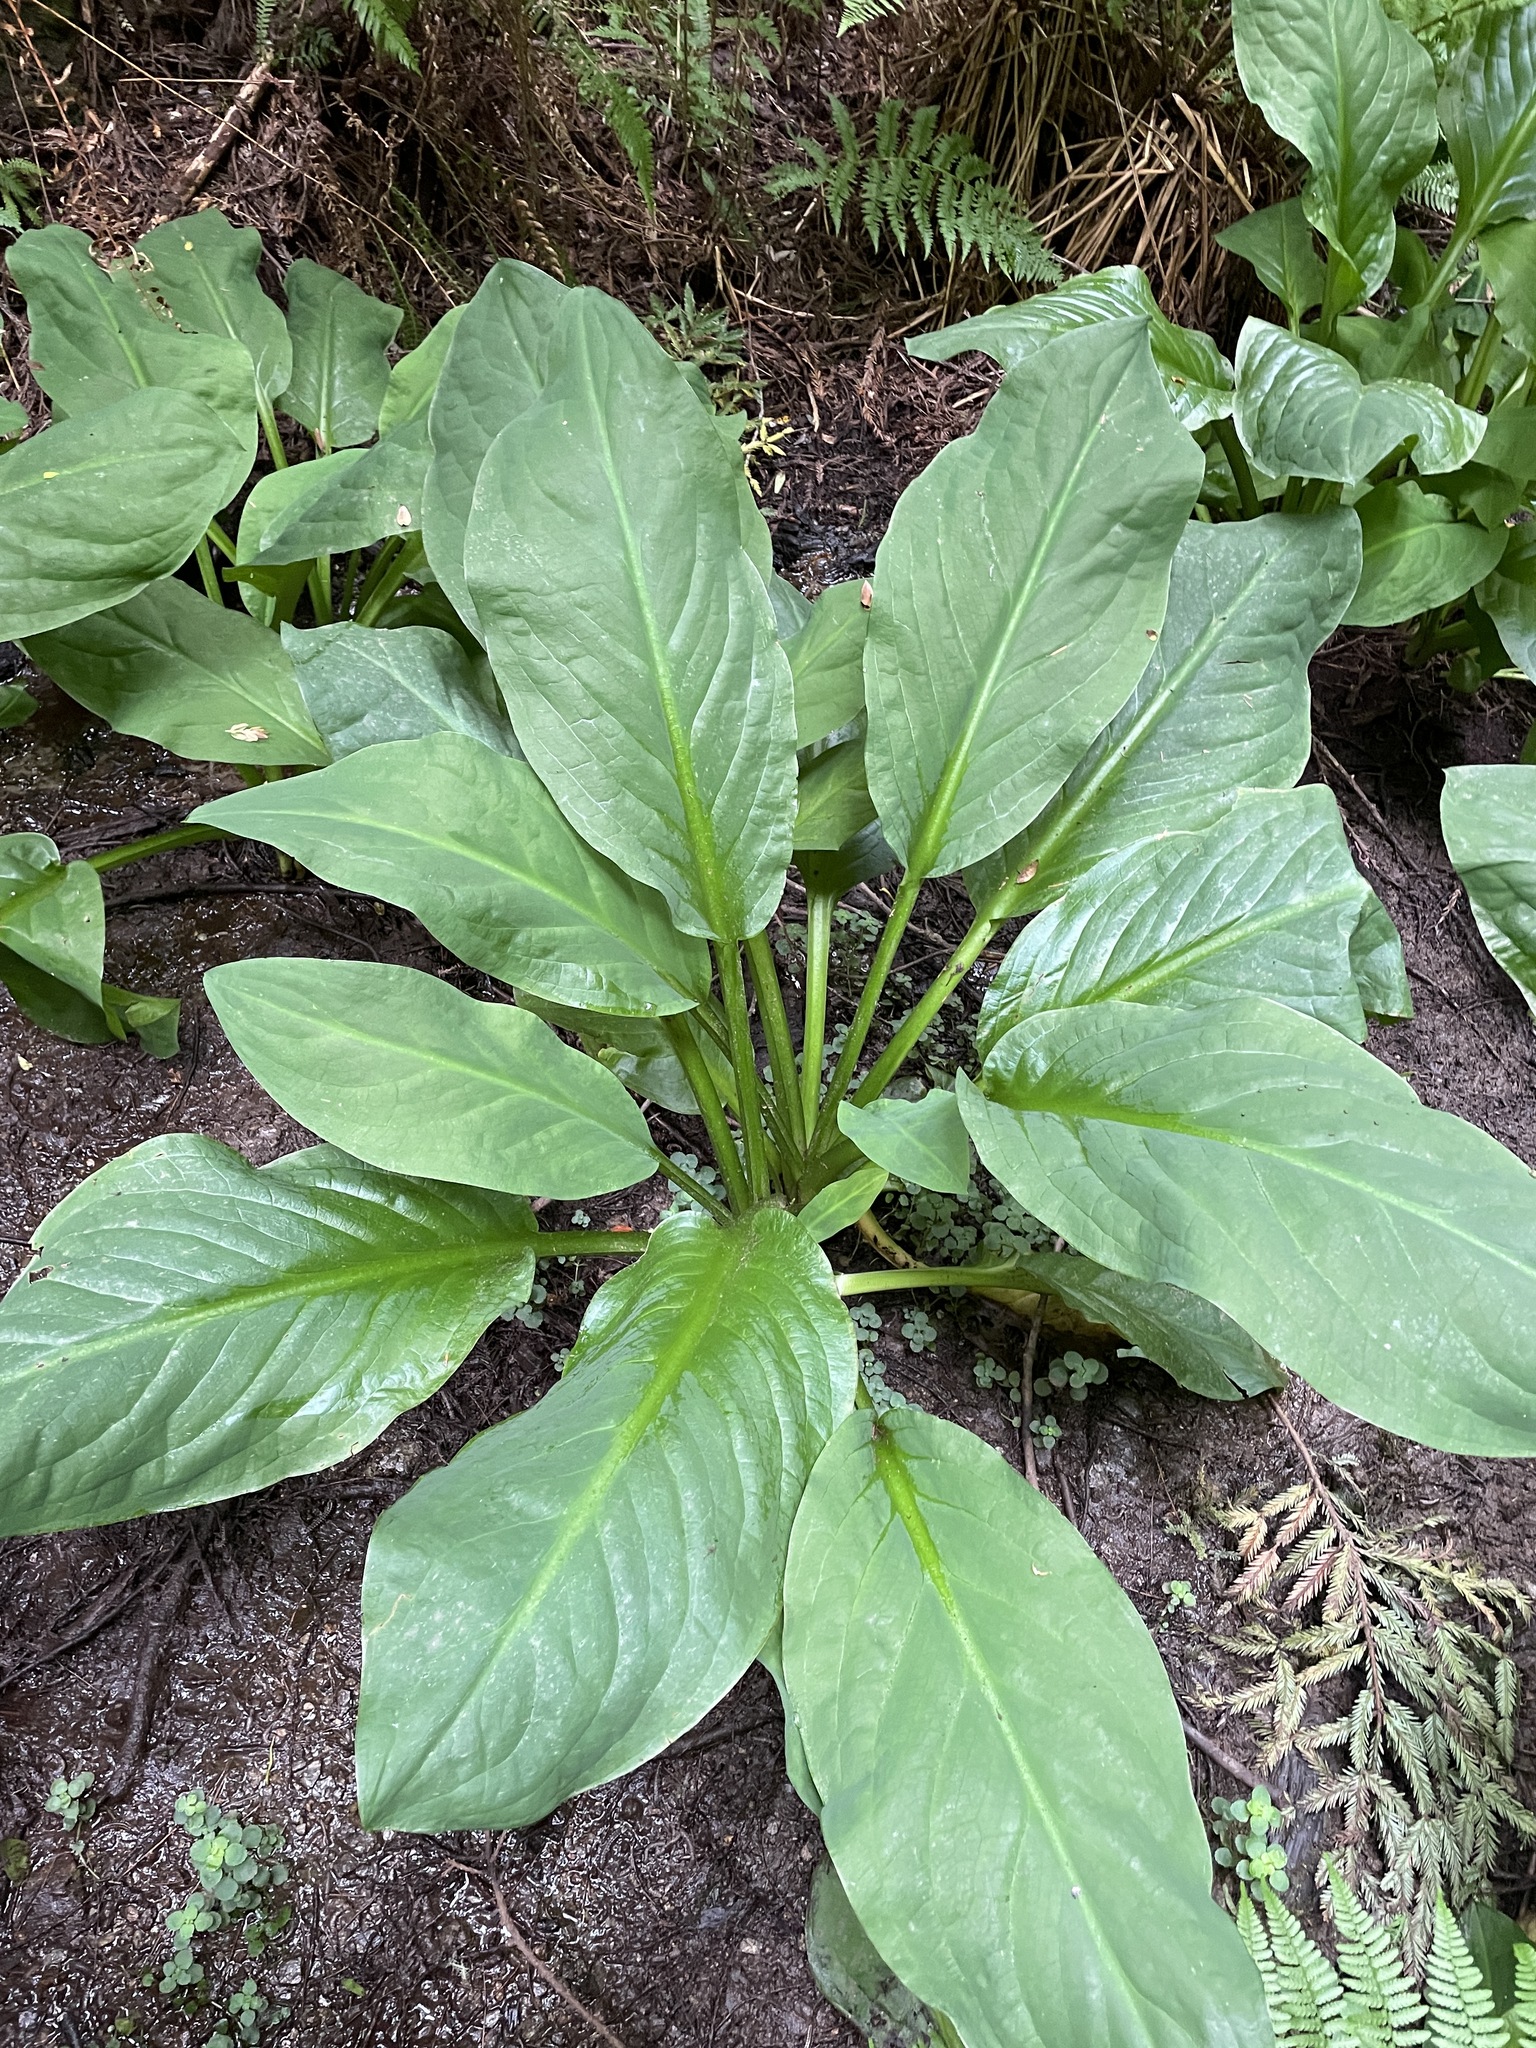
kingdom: Plantae
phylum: Tracheophyta
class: Liliopsida
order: Alismatales
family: Araceae
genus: Lysichiton
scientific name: Lysichiton americanus
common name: American skunk cabbage
